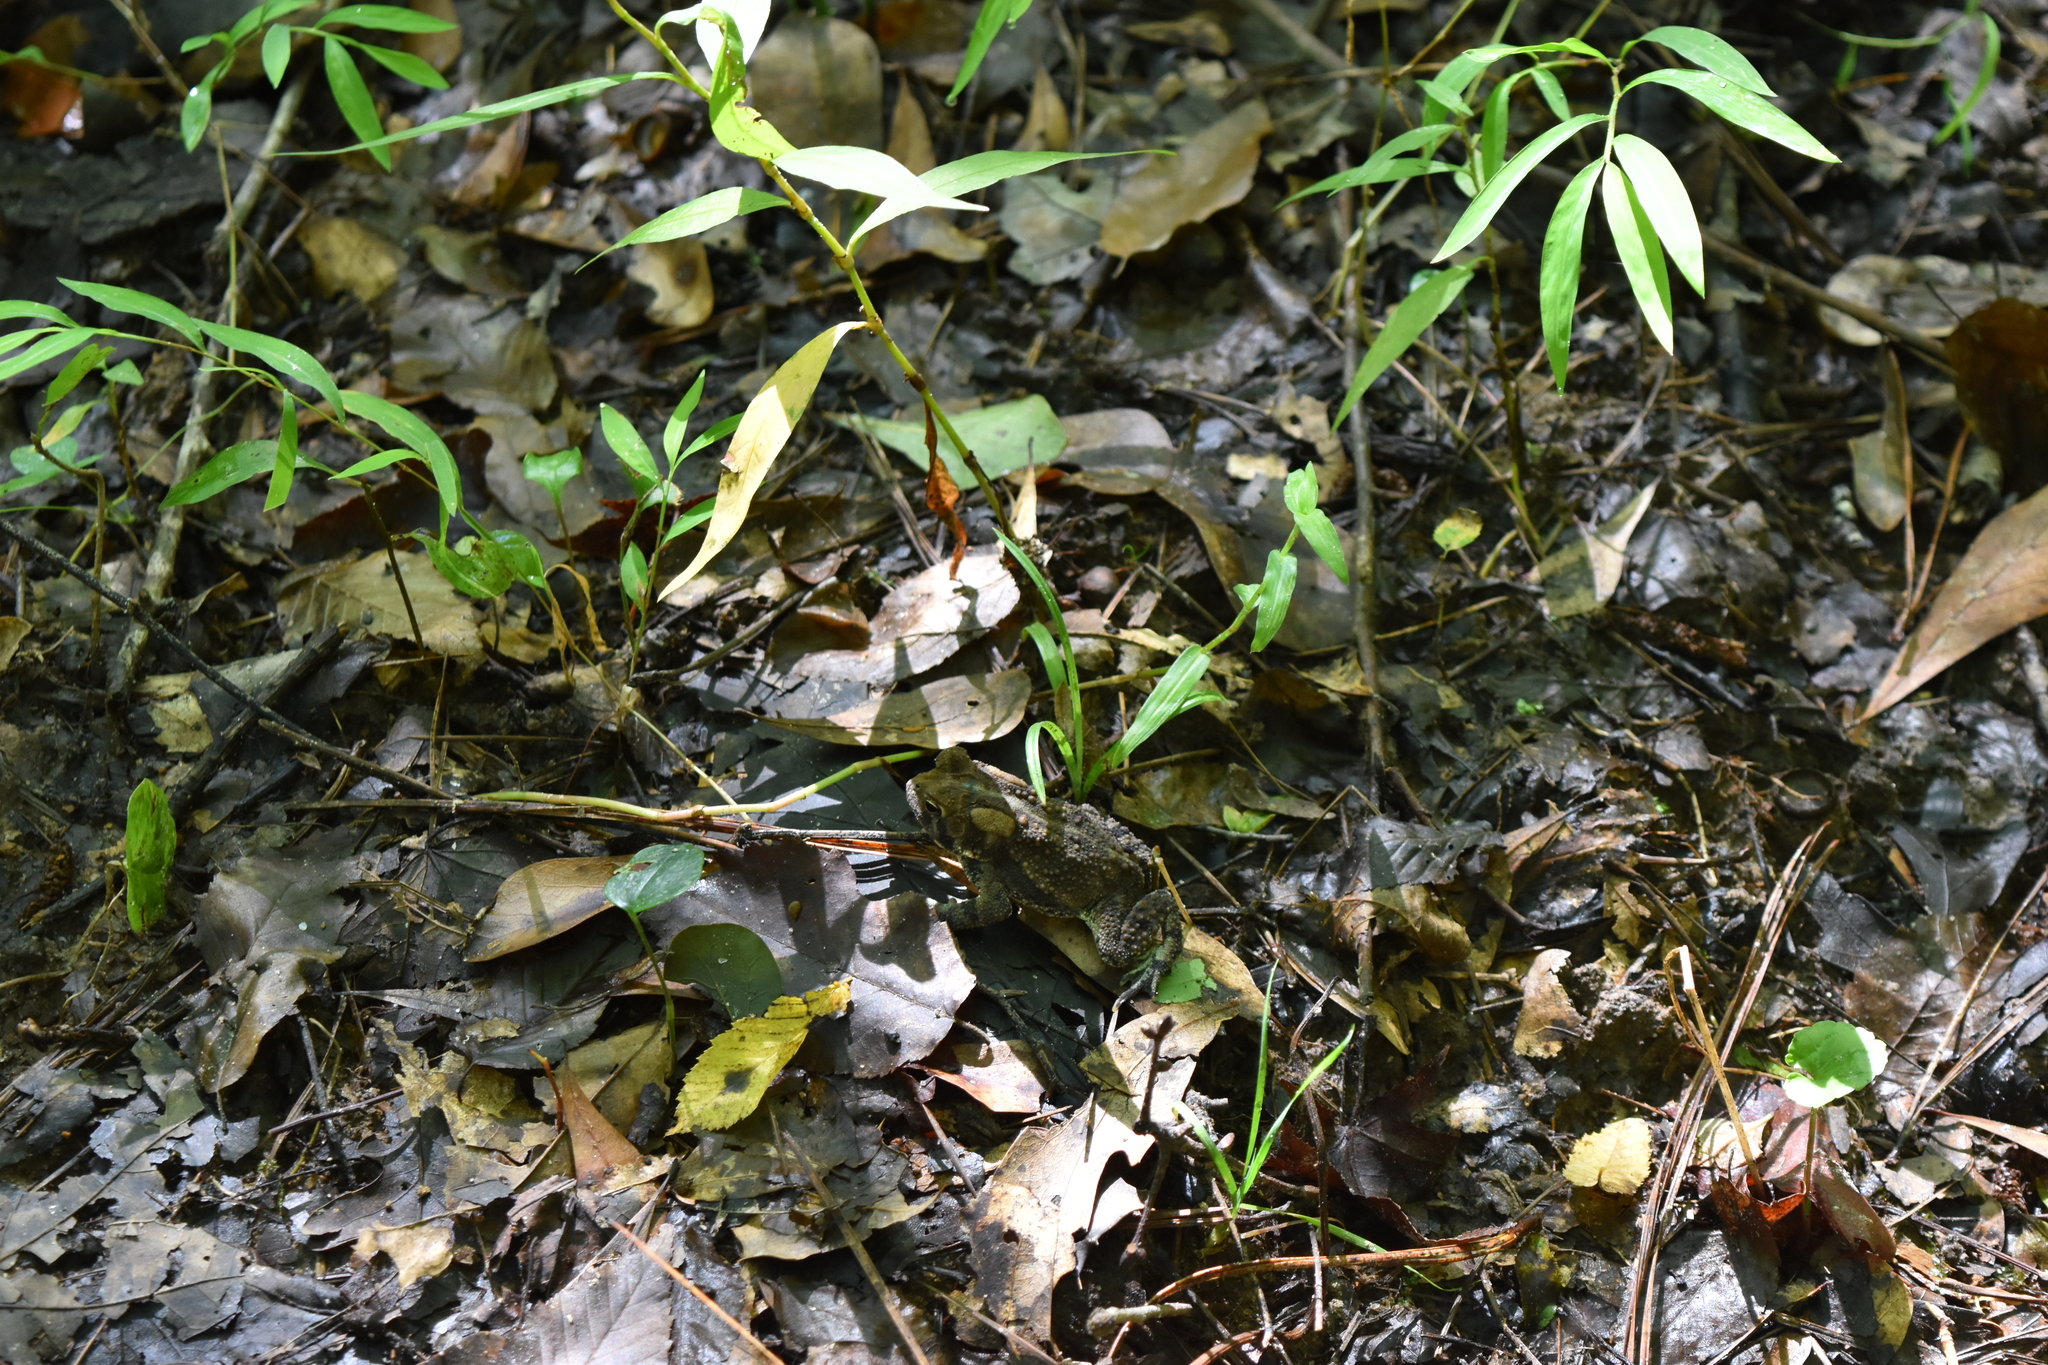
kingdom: Animalia
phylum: Chordata
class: Amphibia
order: Anura
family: Bufonidae
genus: Anaxyrus
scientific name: Anaxyrus americanus
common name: American toad
